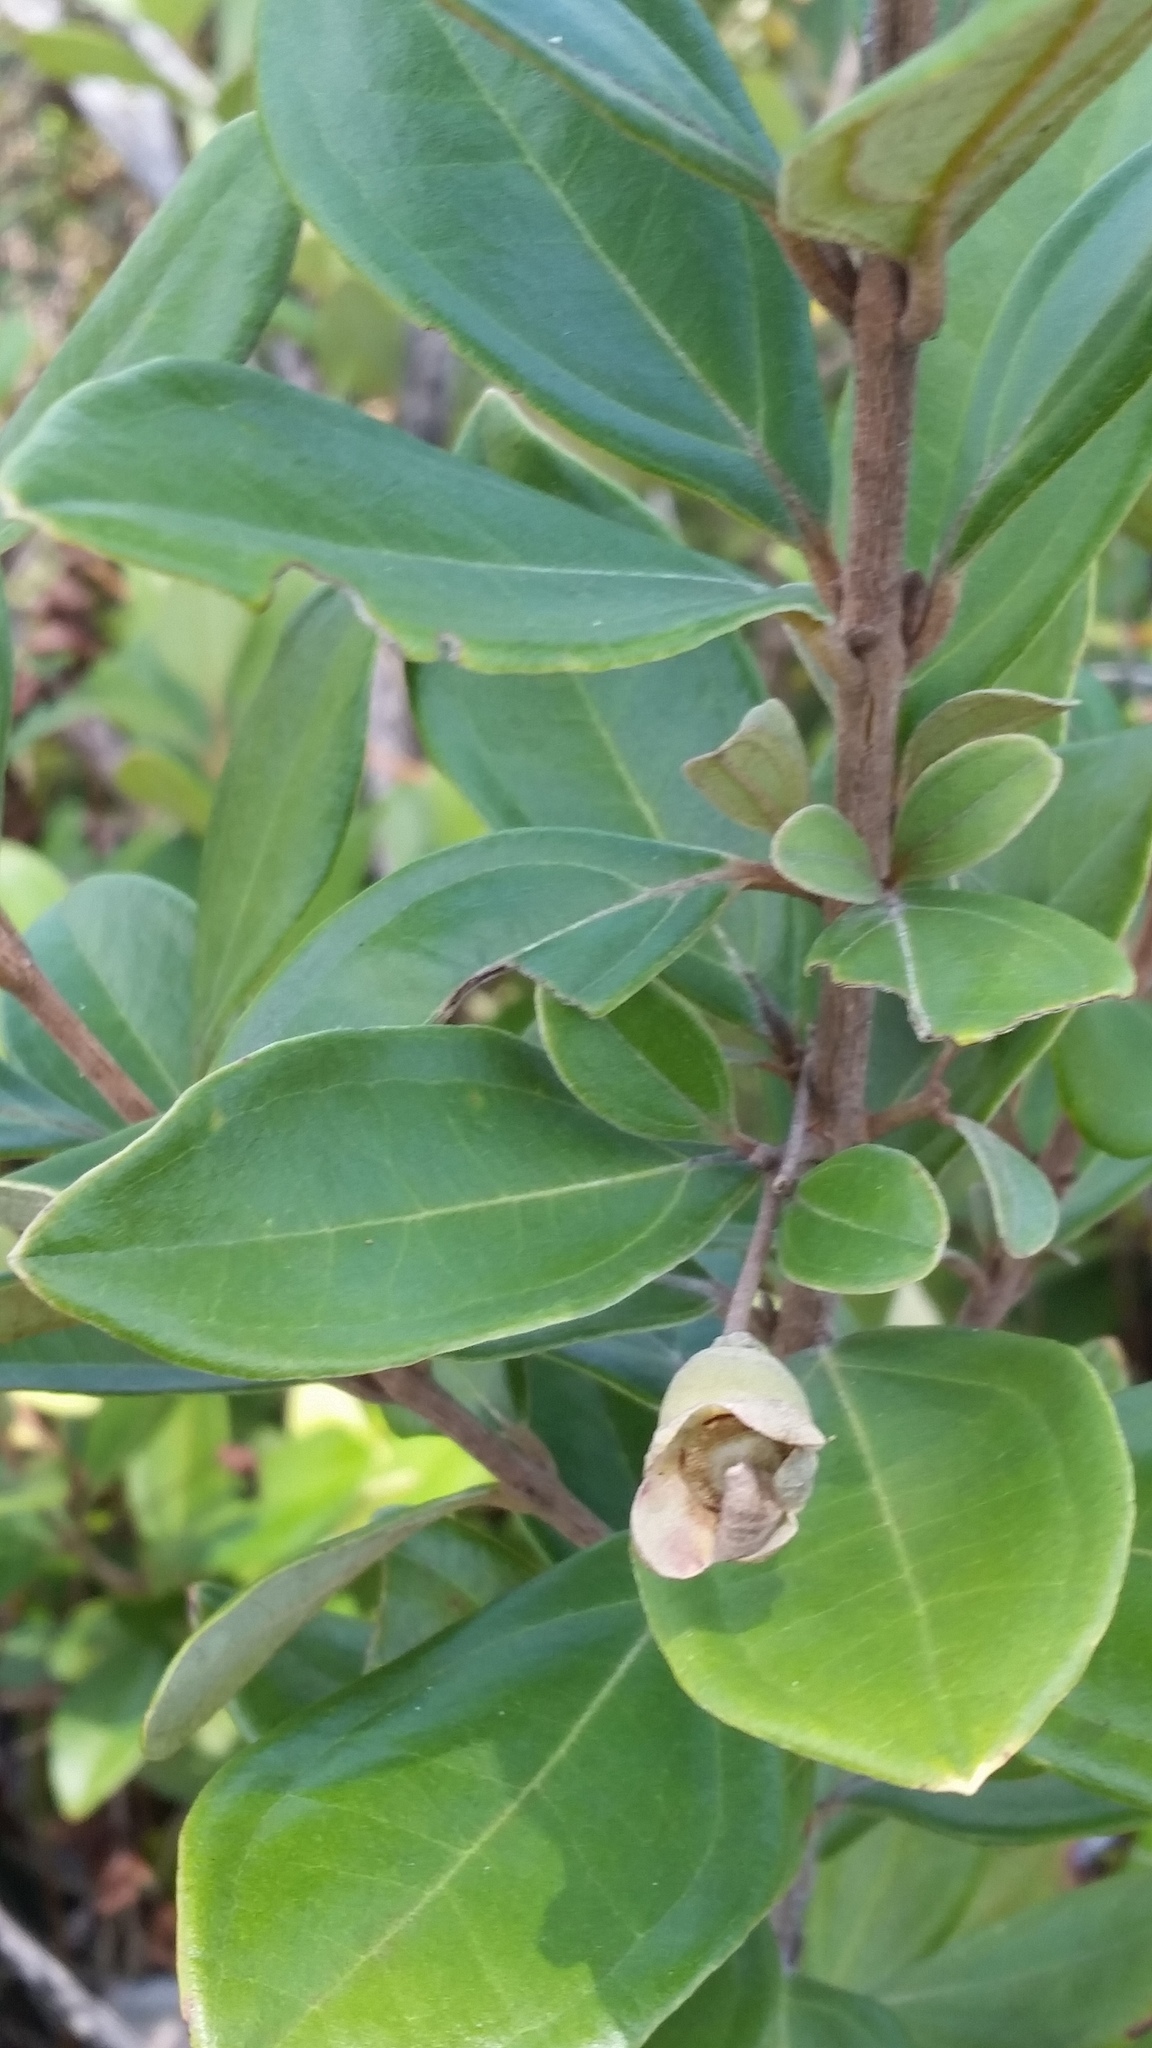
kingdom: Plantae
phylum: Tracheophyta
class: Magnoliopsida
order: Myrtales
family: Myrtaceae
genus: Rhodomyrtus
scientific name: Rhodomyrtus tomentosa
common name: Rose myrtle
